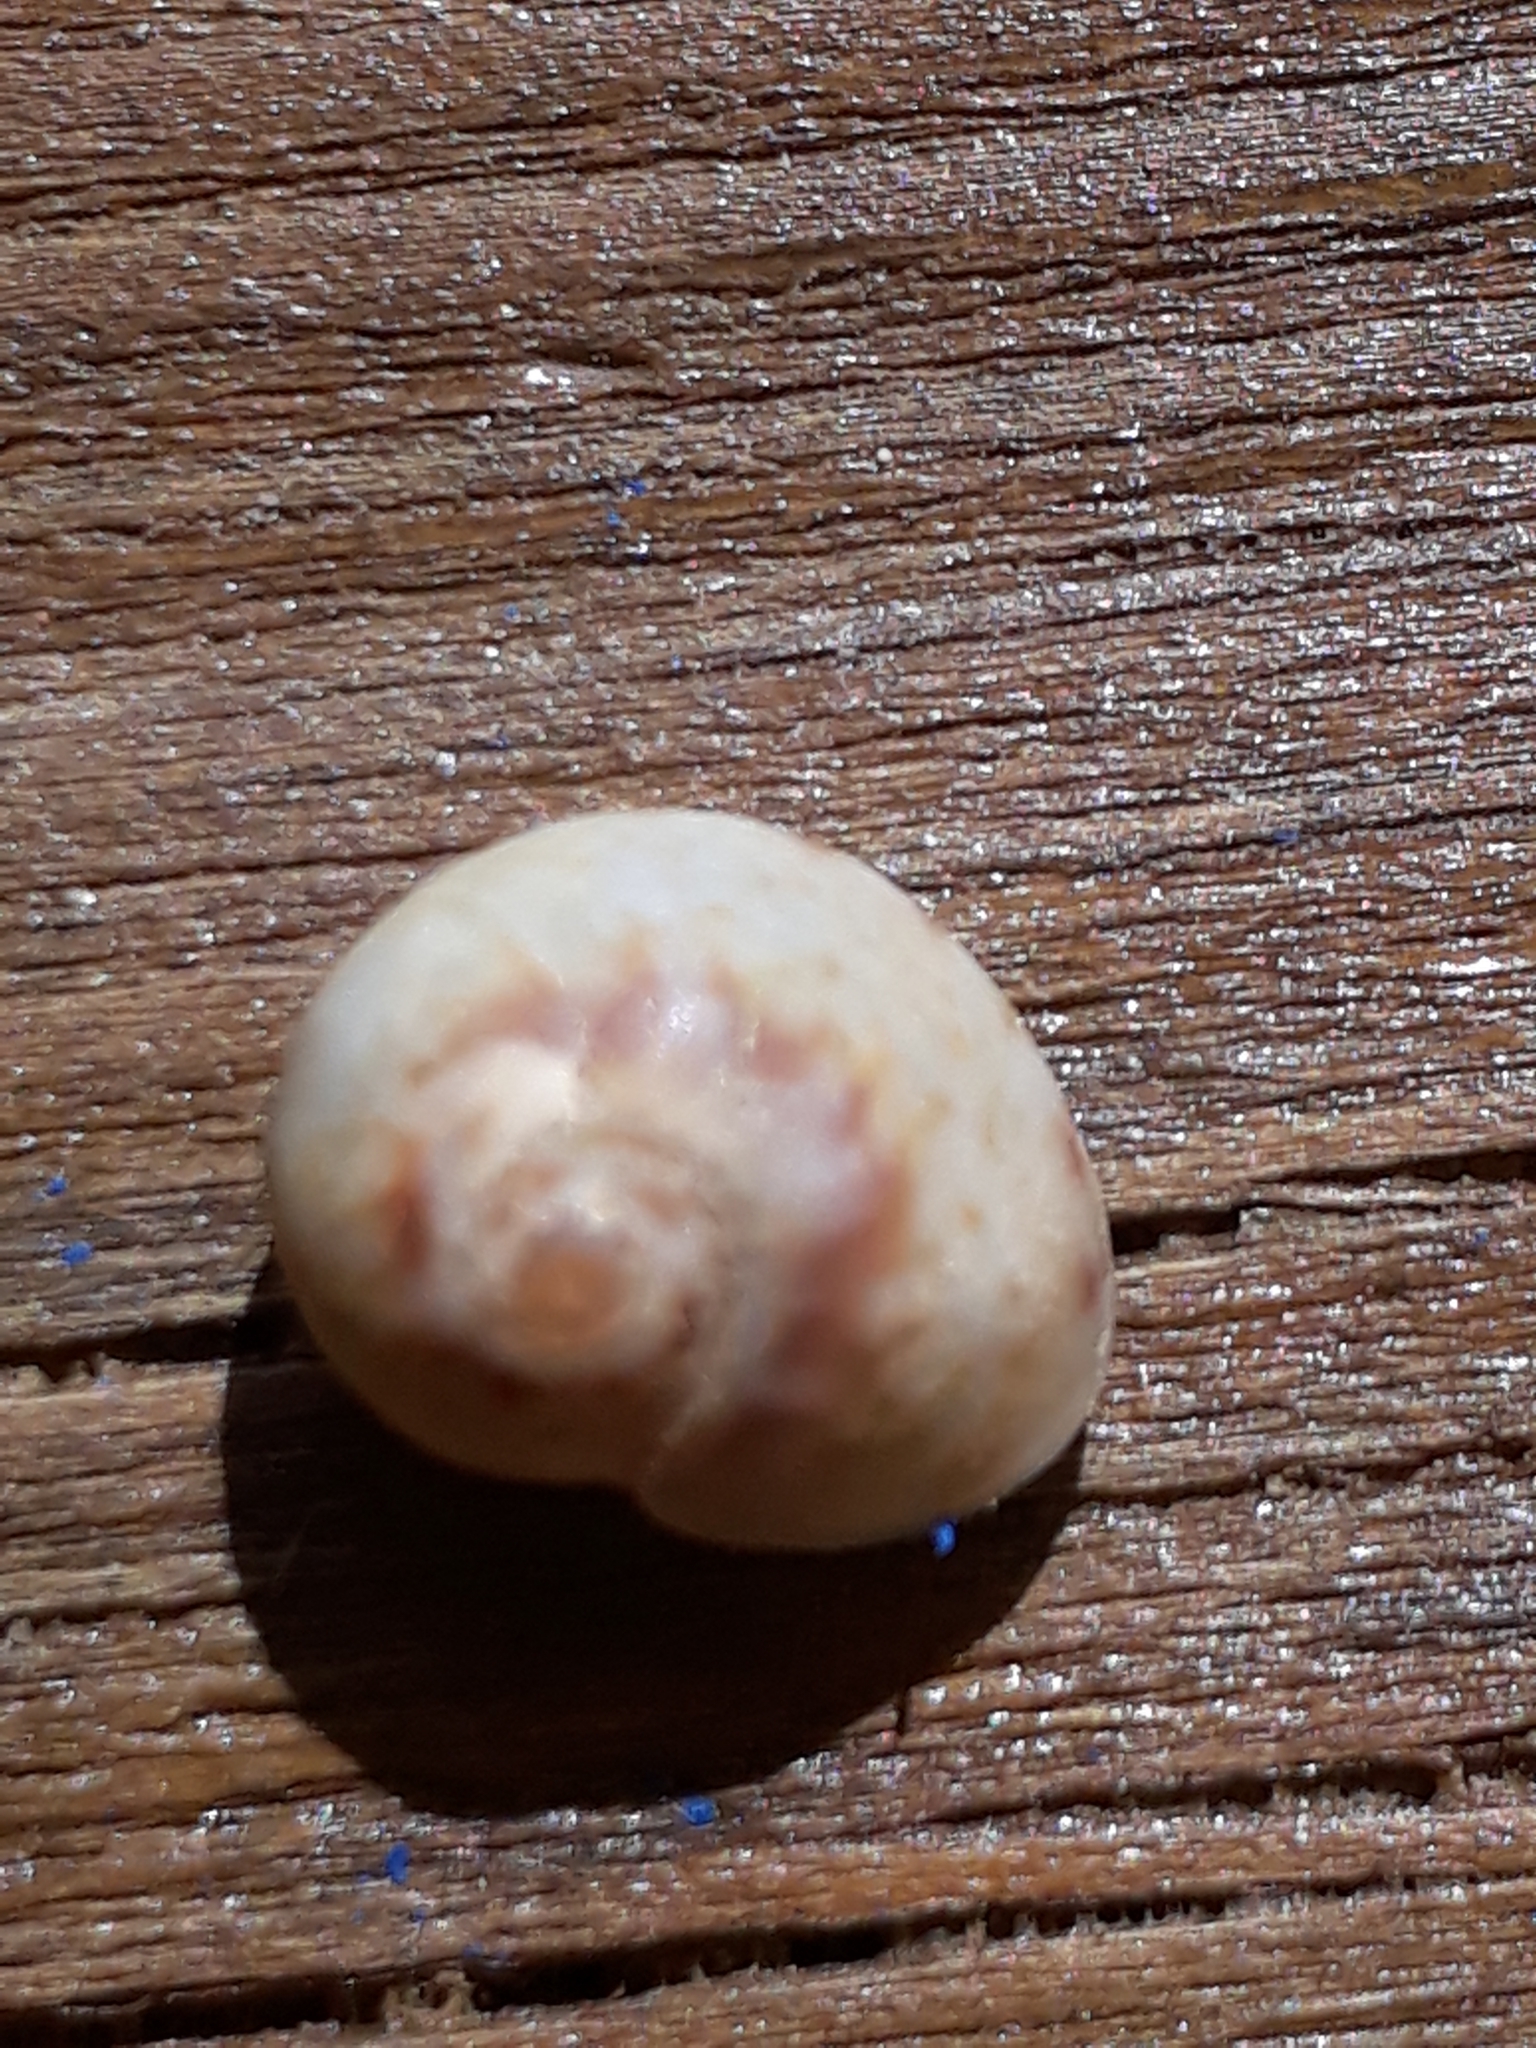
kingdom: Animalia
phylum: Mollusca
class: Gastropoda
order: Neogastropoda
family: Nassariidae
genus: Tritia
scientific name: Tritia neritea
